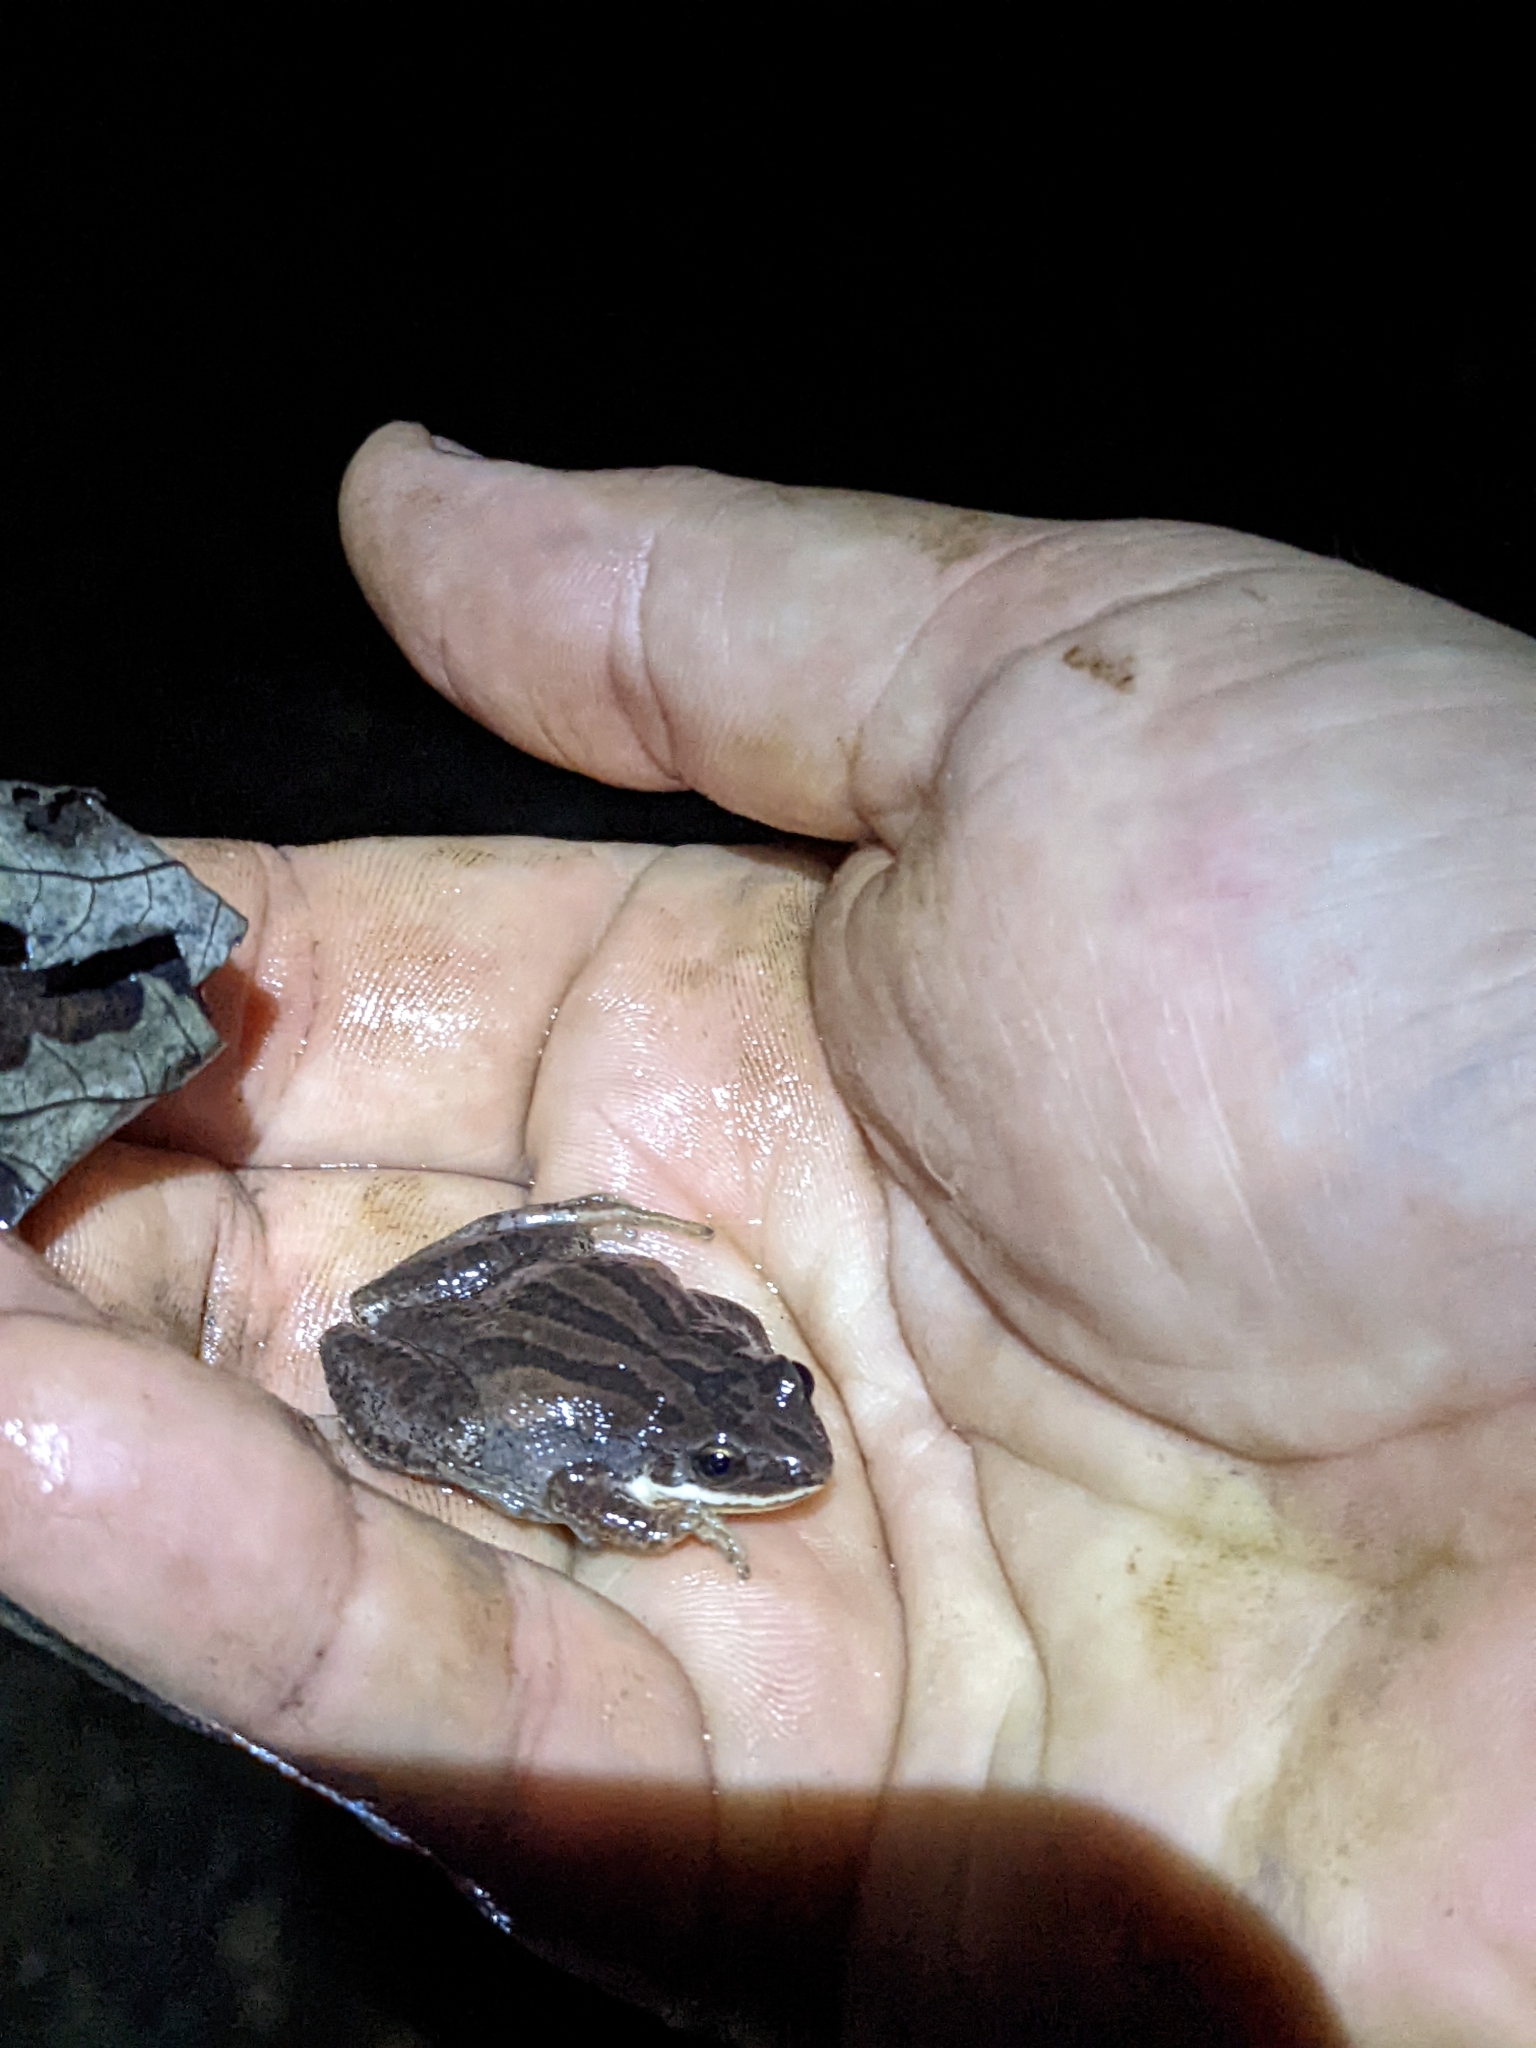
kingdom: Animalia
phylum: Chordata
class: Amphibia
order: Anura
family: Hylidae
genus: Pseudacris
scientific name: Pseudacris feriarum
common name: Upland chorus frog
